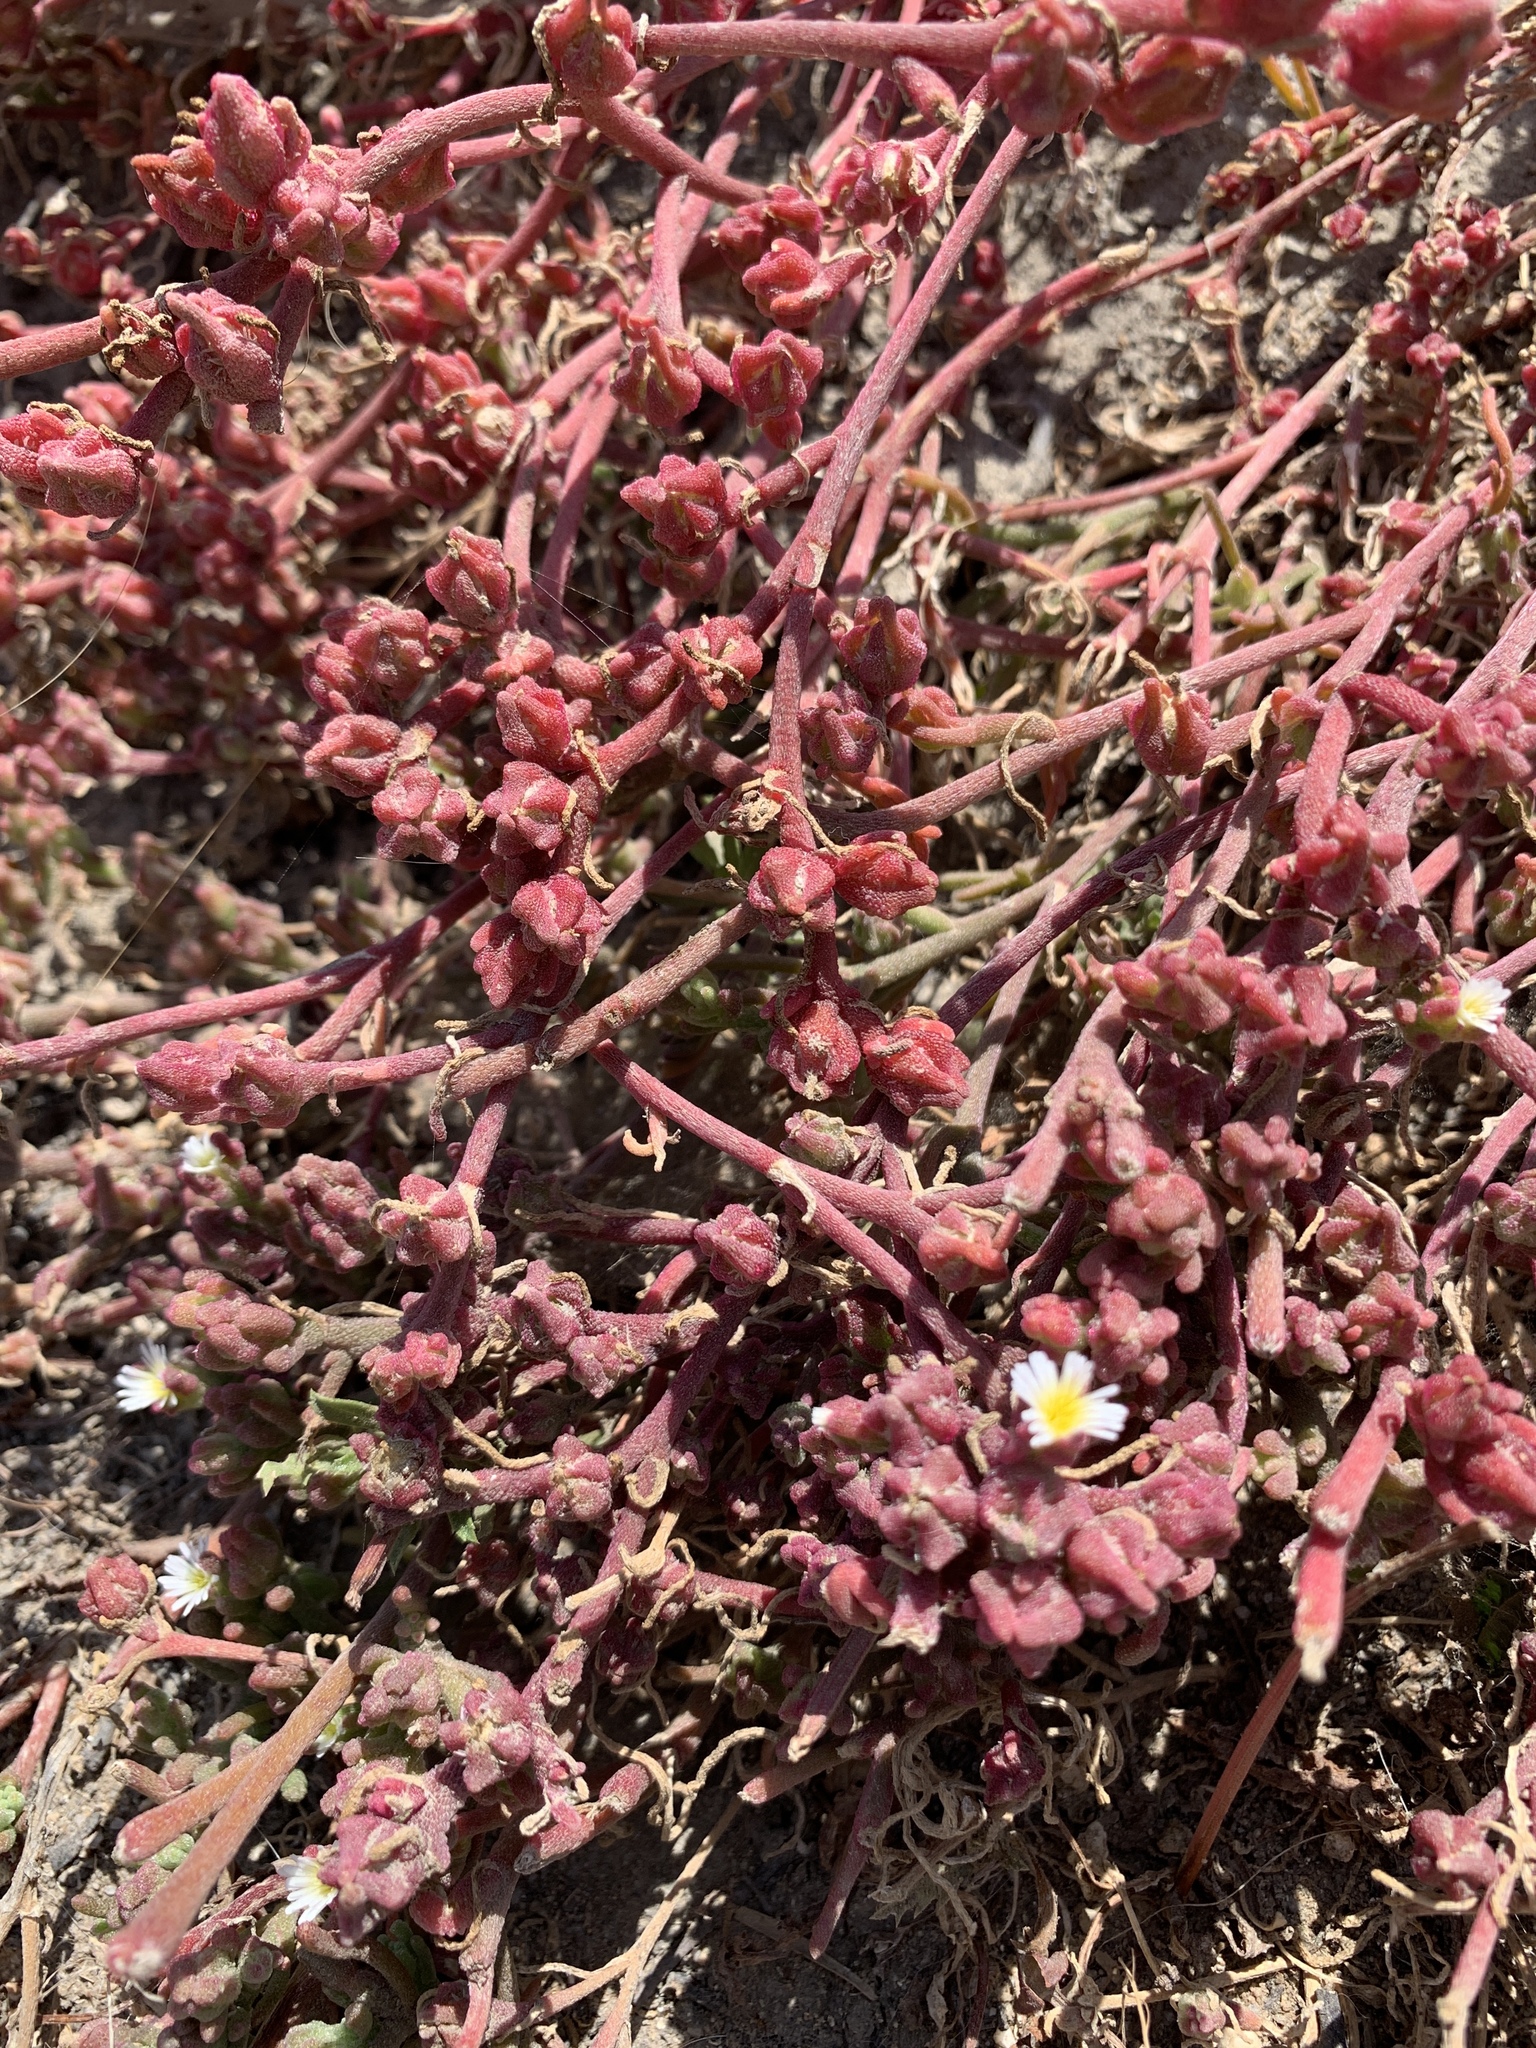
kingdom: Plantae
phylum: Tracheophyta
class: Magnoliopsida
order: Caryophyllales
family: Aizoaceae
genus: Mesembryanthemum
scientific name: Mesembryanthemum nodiflorum
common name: Slenderleaf iceplant
